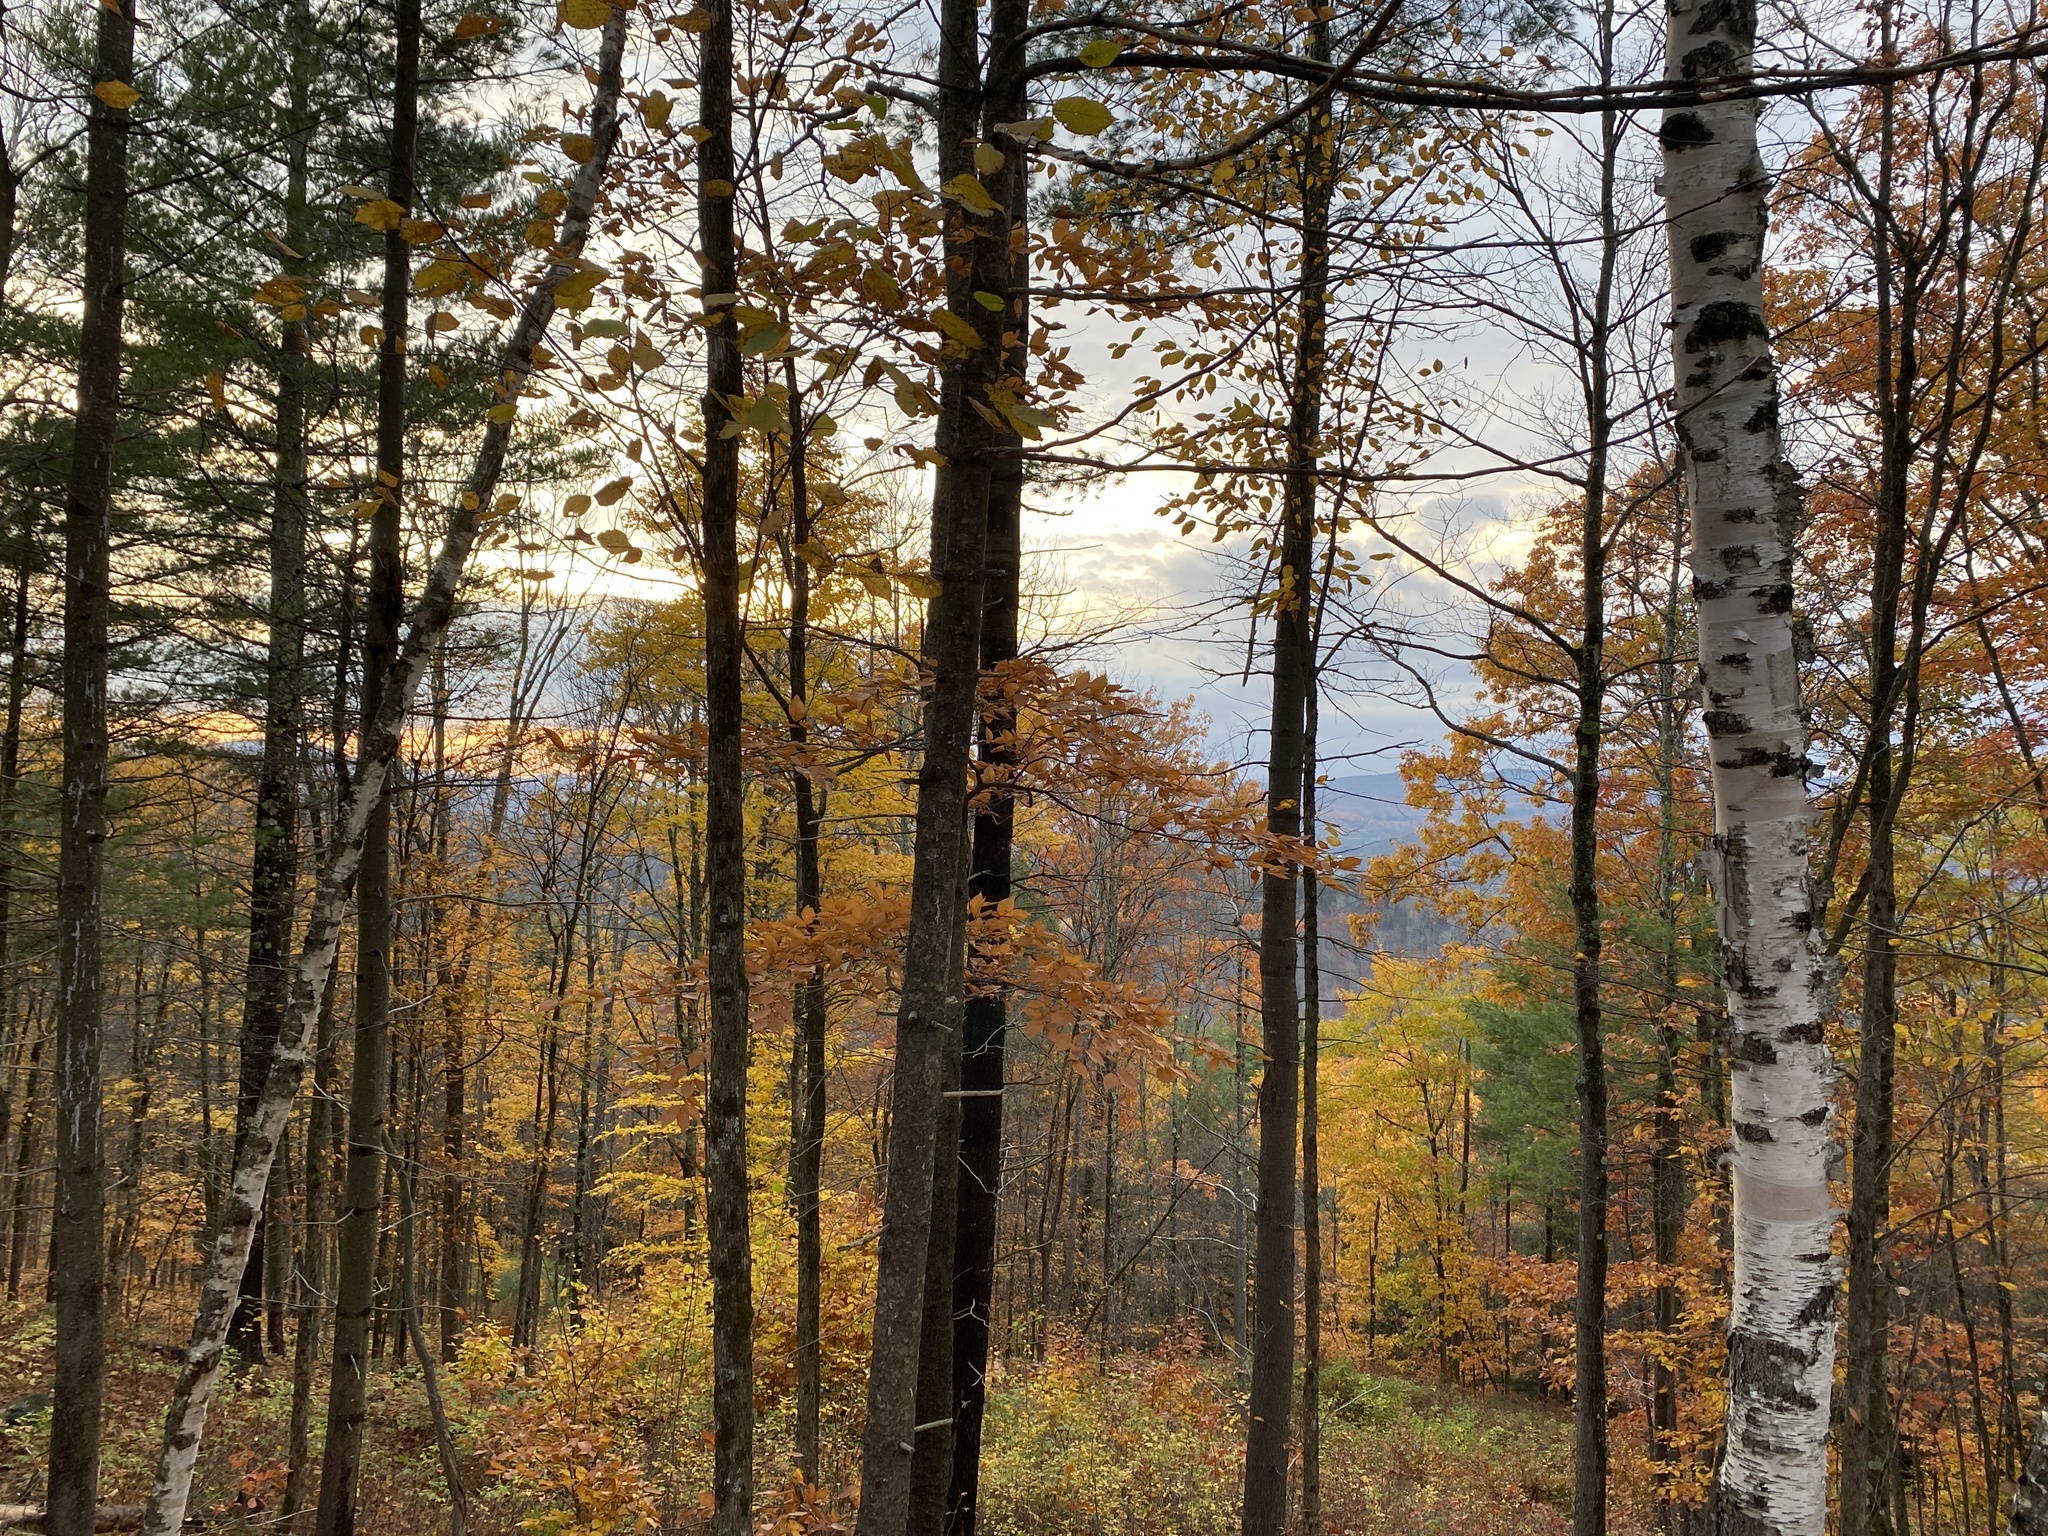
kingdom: Plantae
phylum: Tracheophyta
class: Magnoliopsida
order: Fagales
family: Betulaceae
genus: Betula
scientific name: Betula papyrifera
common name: Paper birch
